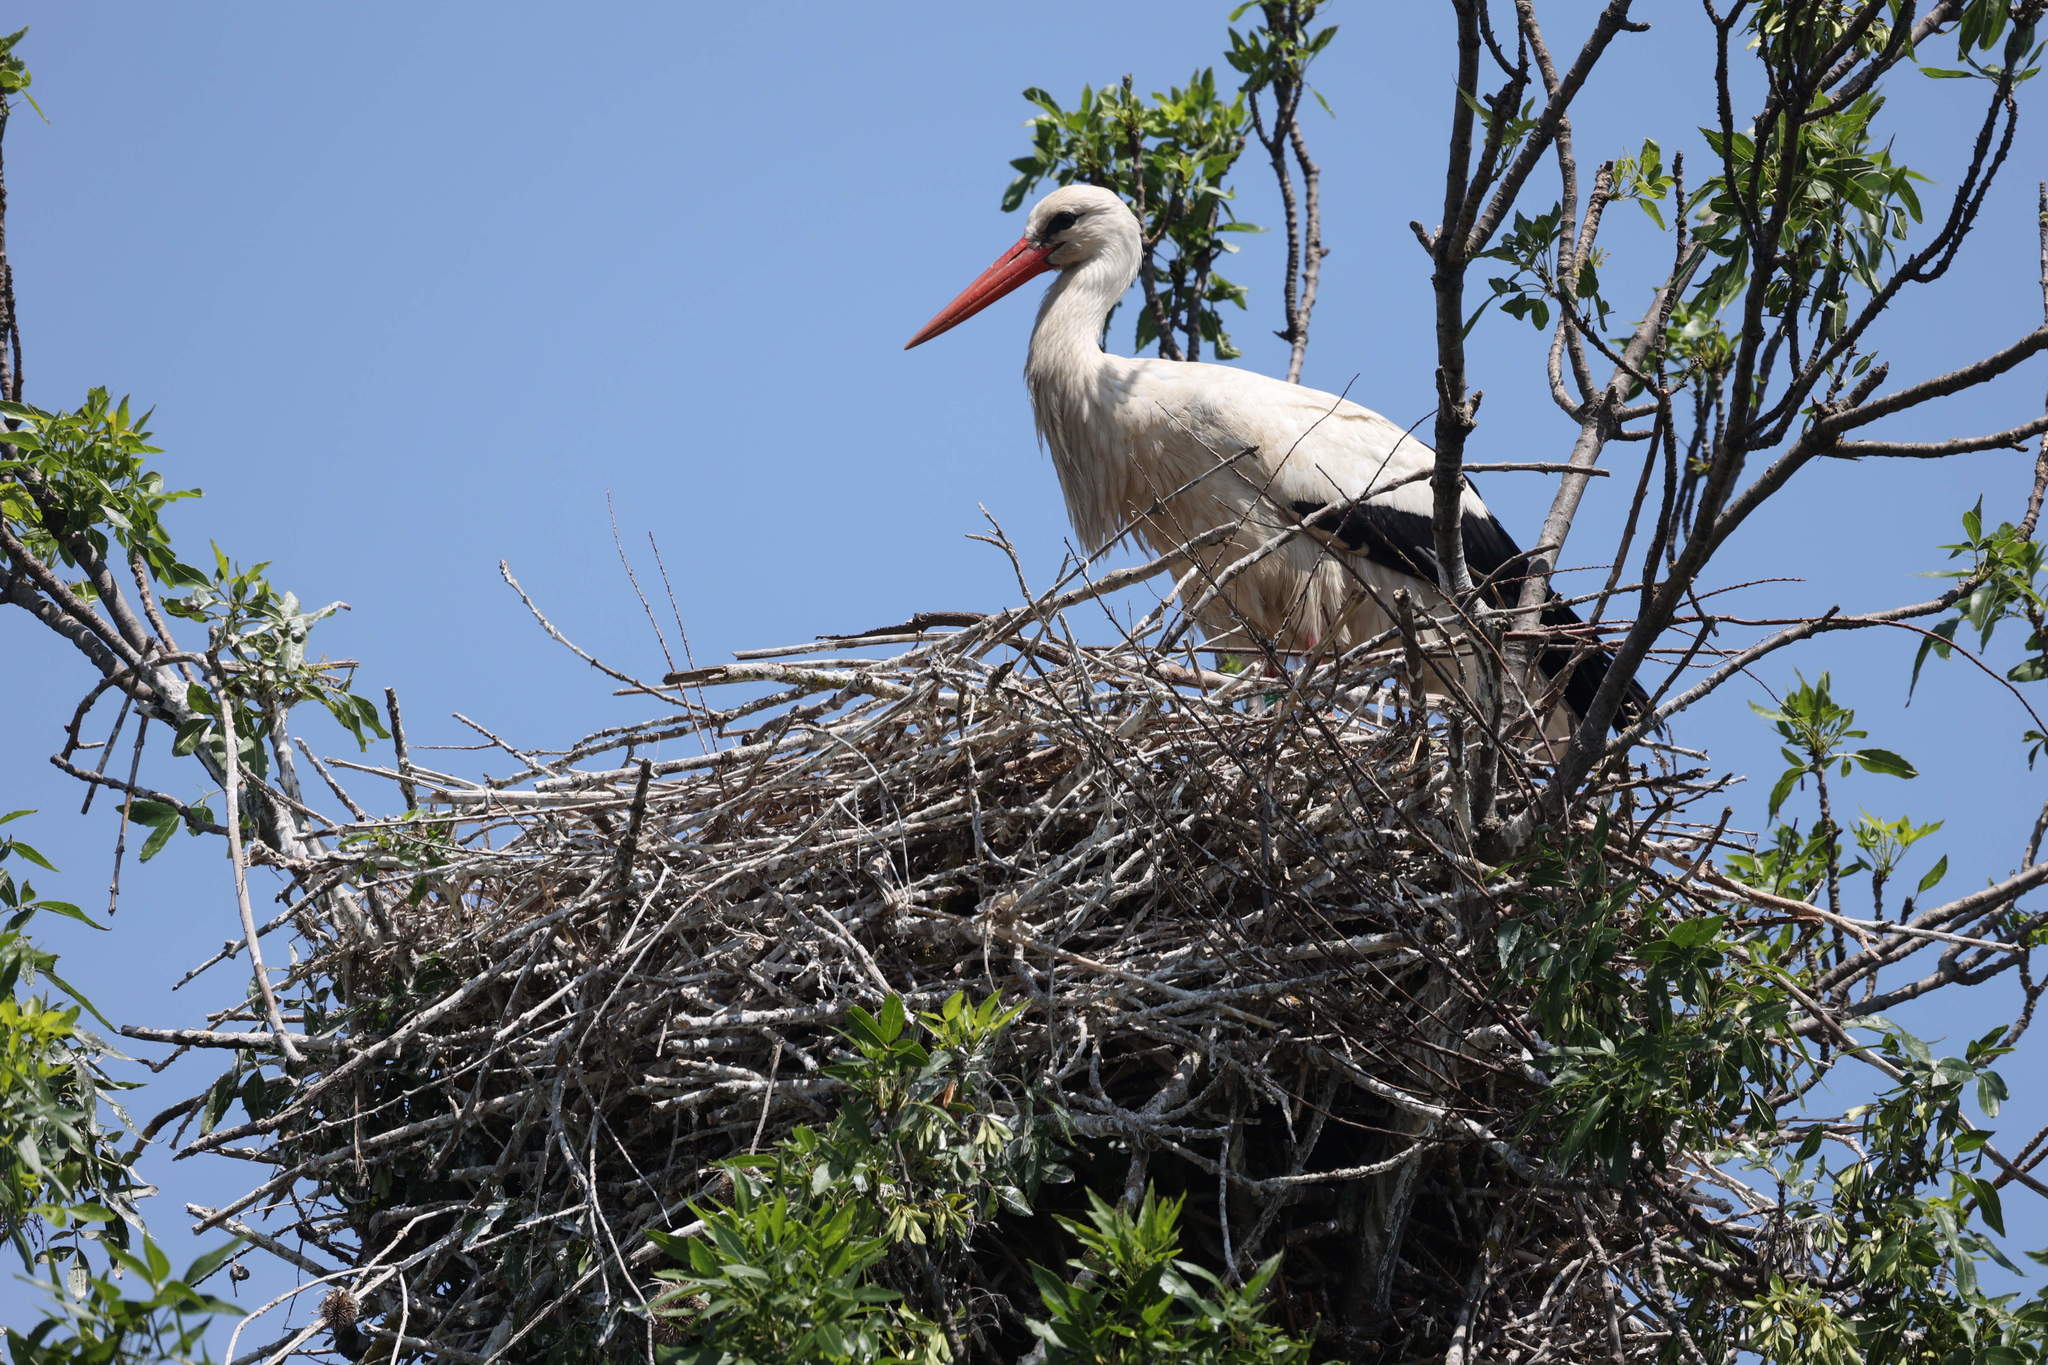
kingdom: Animalia
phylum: Chordata
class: Aves
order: Ciconiiformes
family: Ciconiidae
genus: Ciconia
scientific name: Ciconia ciconia
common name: White stork
